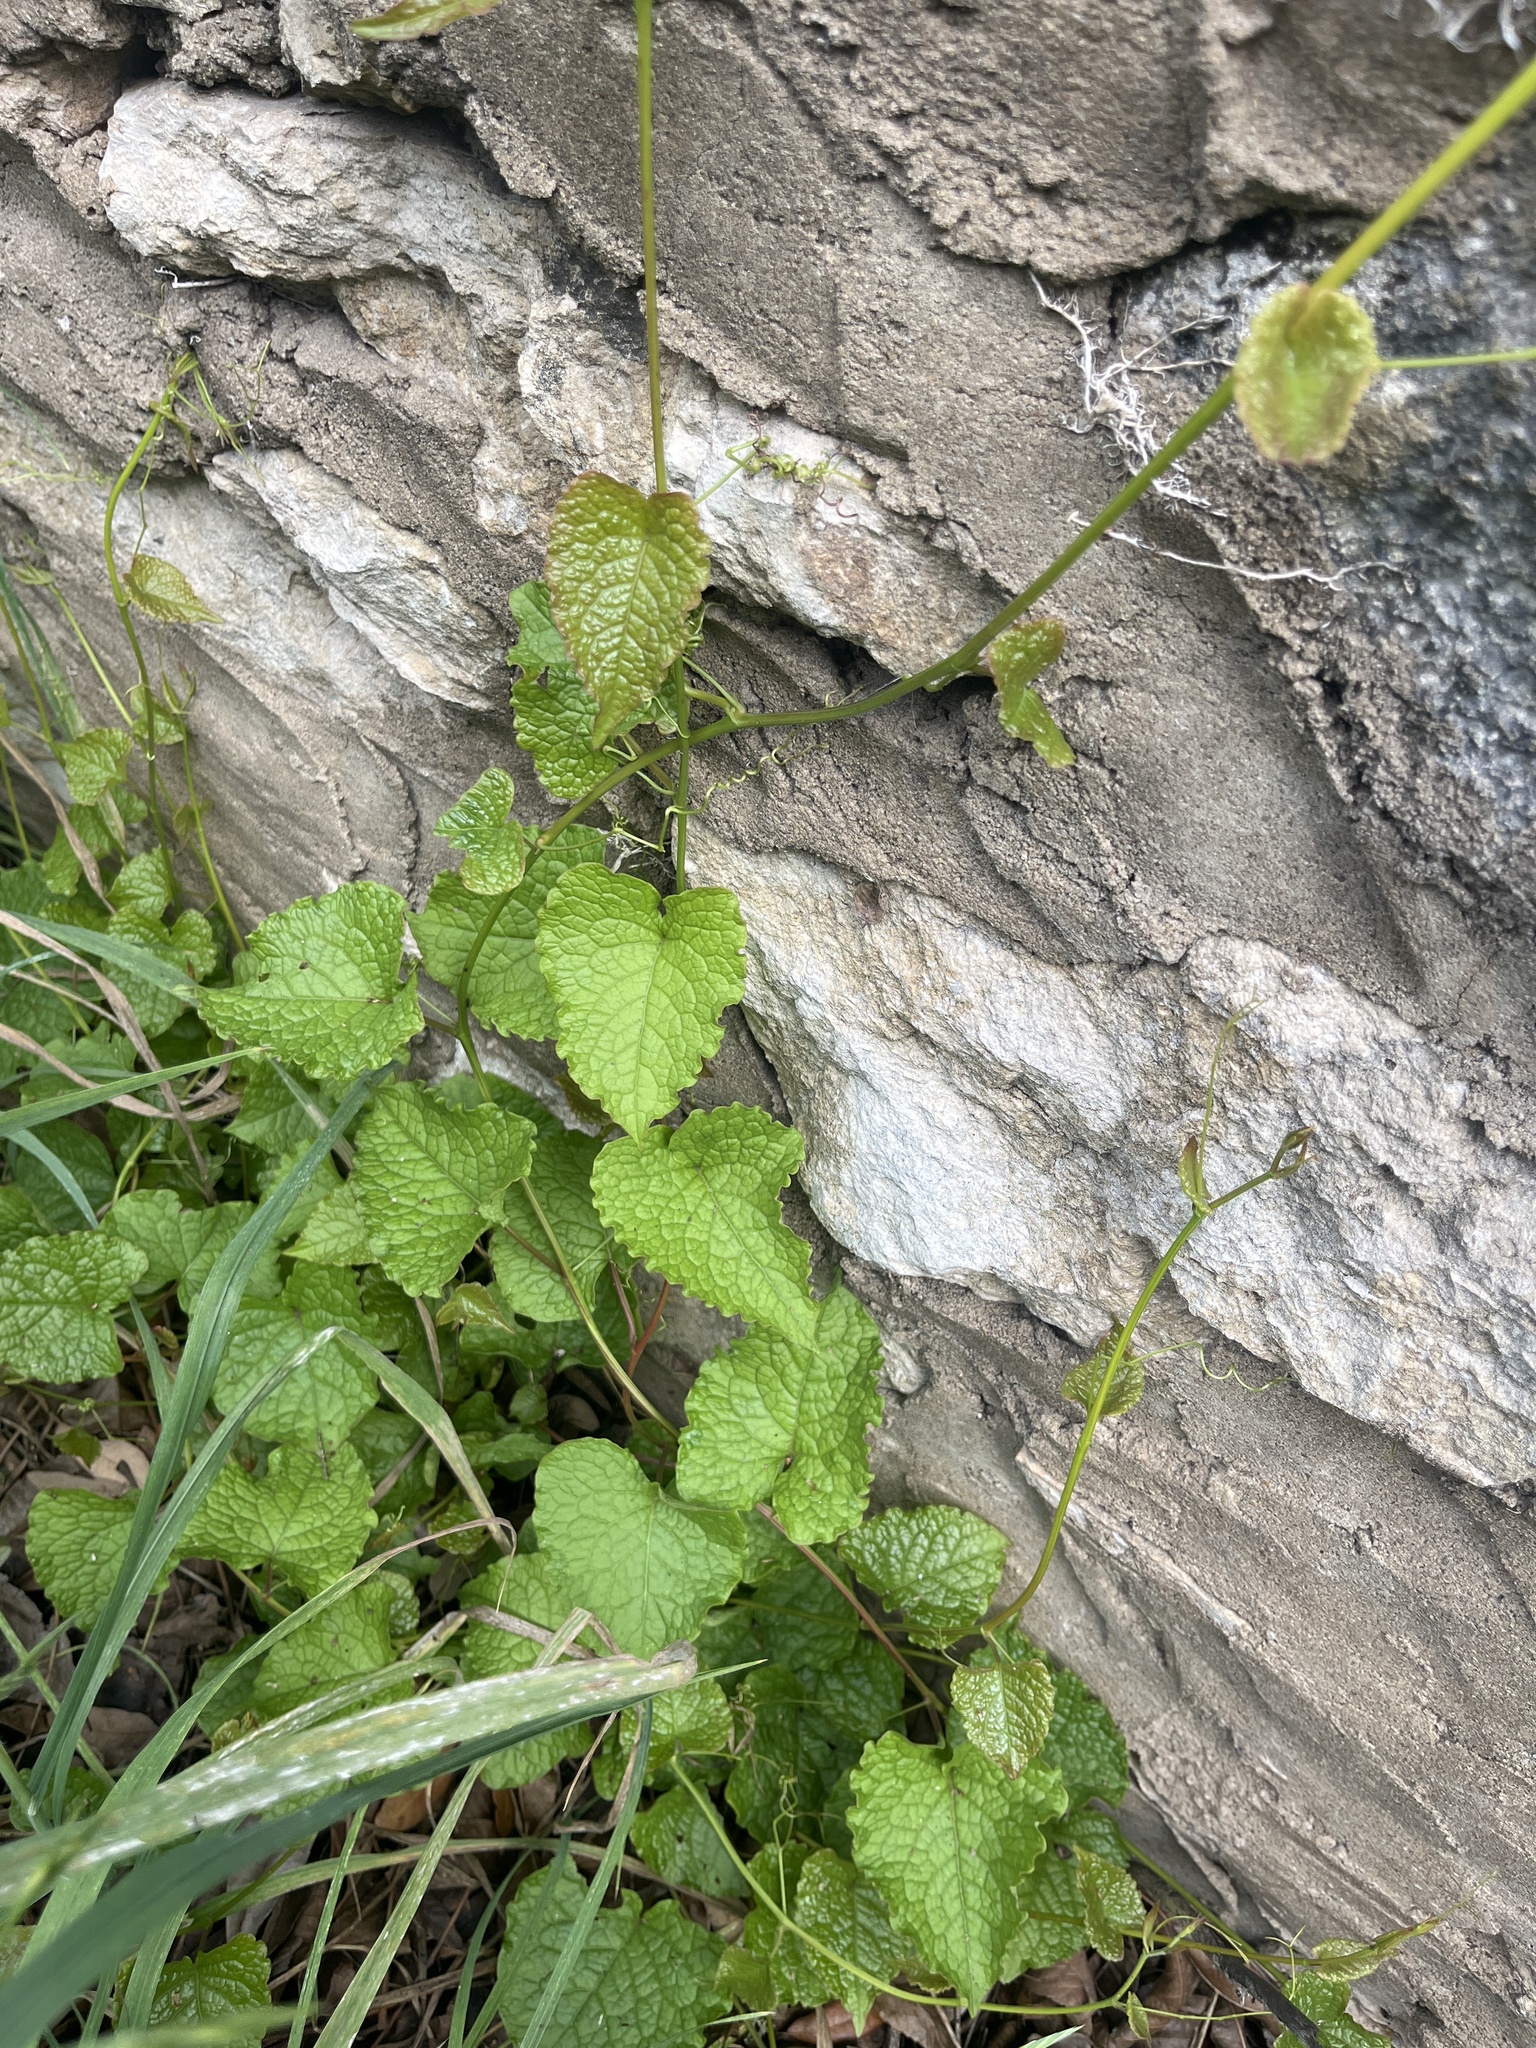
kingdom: Plantae
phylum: Tracheophyta
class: Magnoliopsida
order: Caryophyllales
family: Polygonaceae
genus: Antigonon
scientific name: Antigonon leptopus
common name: Coral vine
